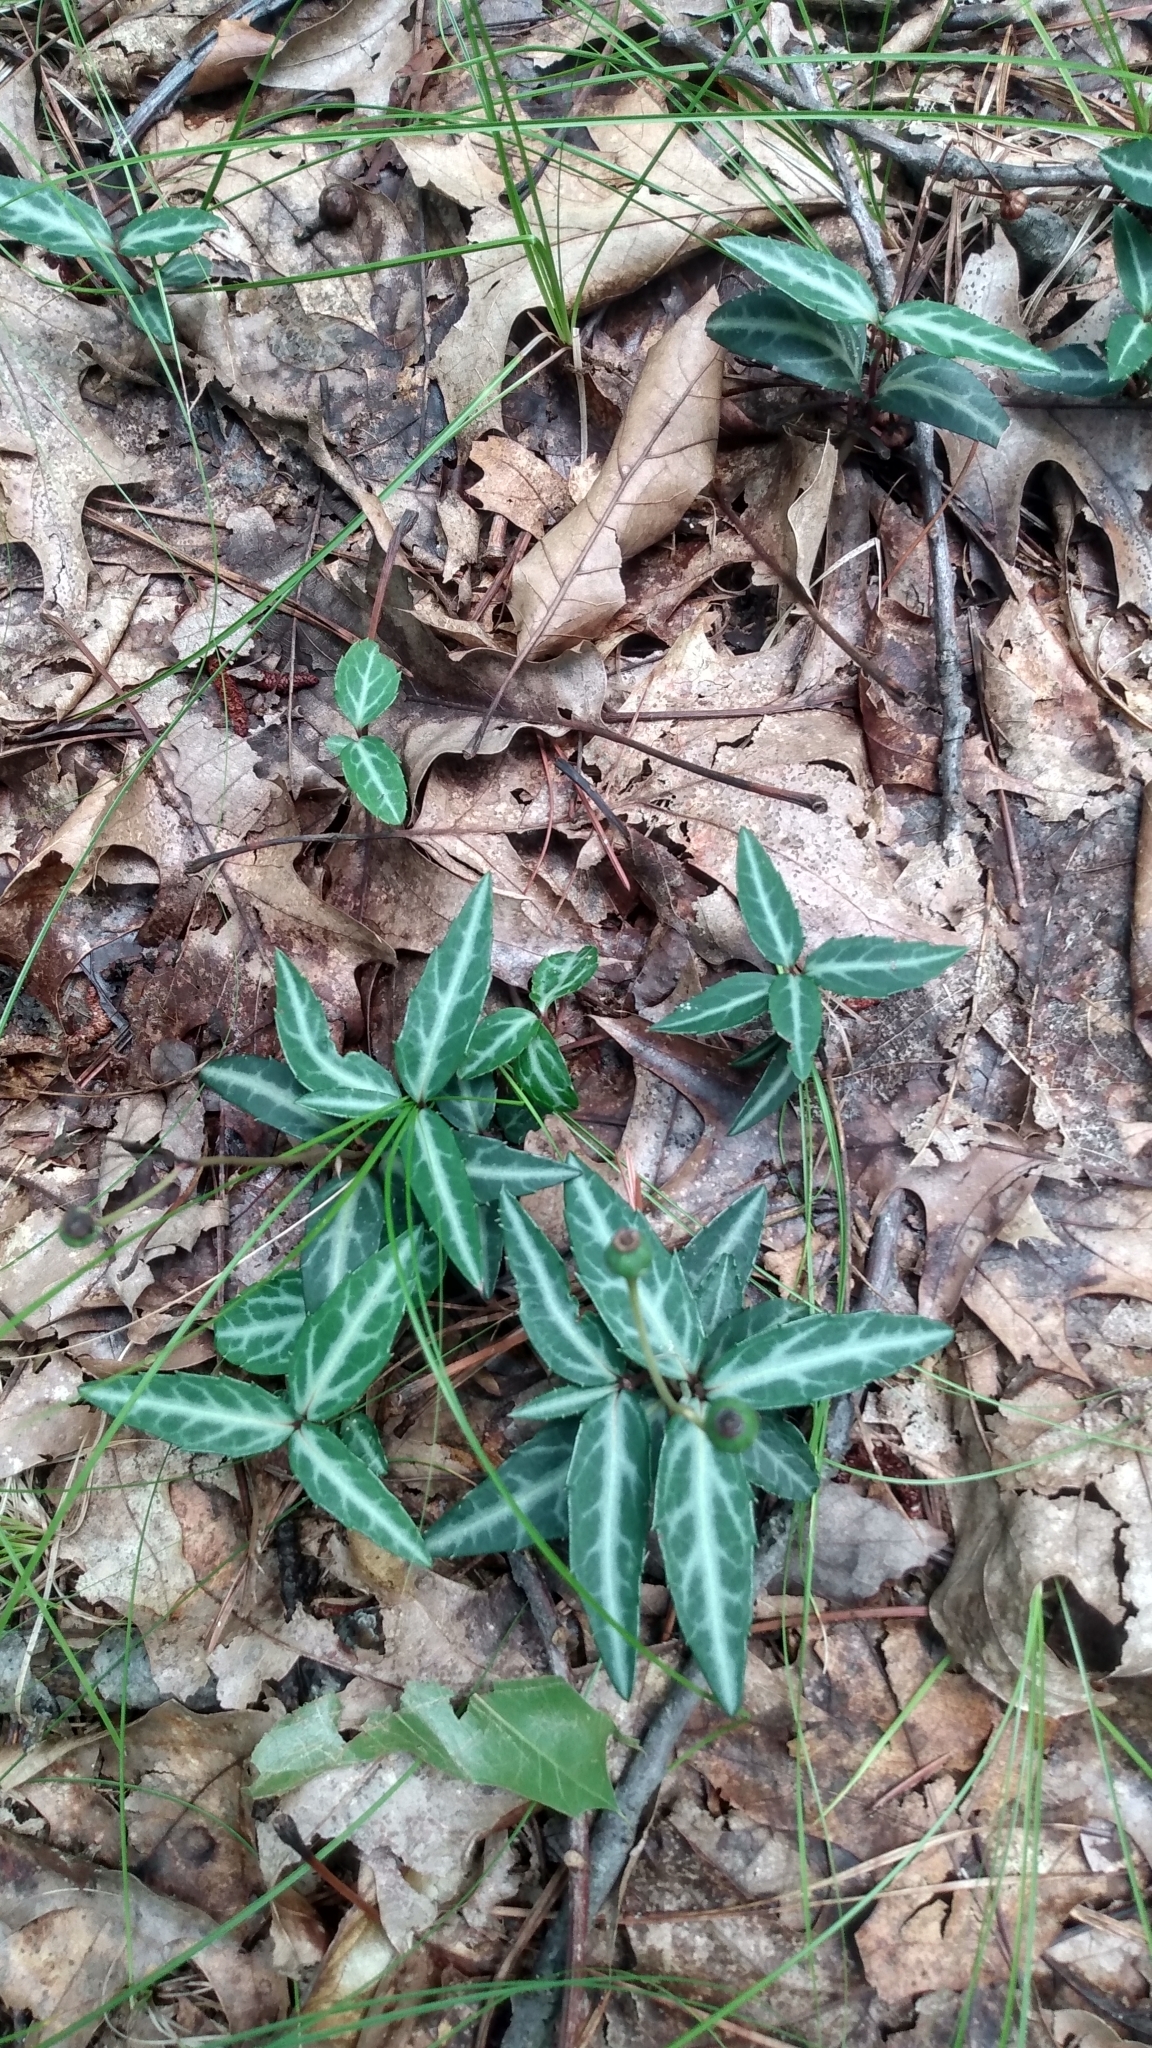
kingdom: Plantae
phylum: Tracheophyta
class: Magnoliopsida
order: Ericales
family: Ericaceae
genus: Chimaphila
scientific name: Chimaphila maculata
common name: Spotted pipsissewa
